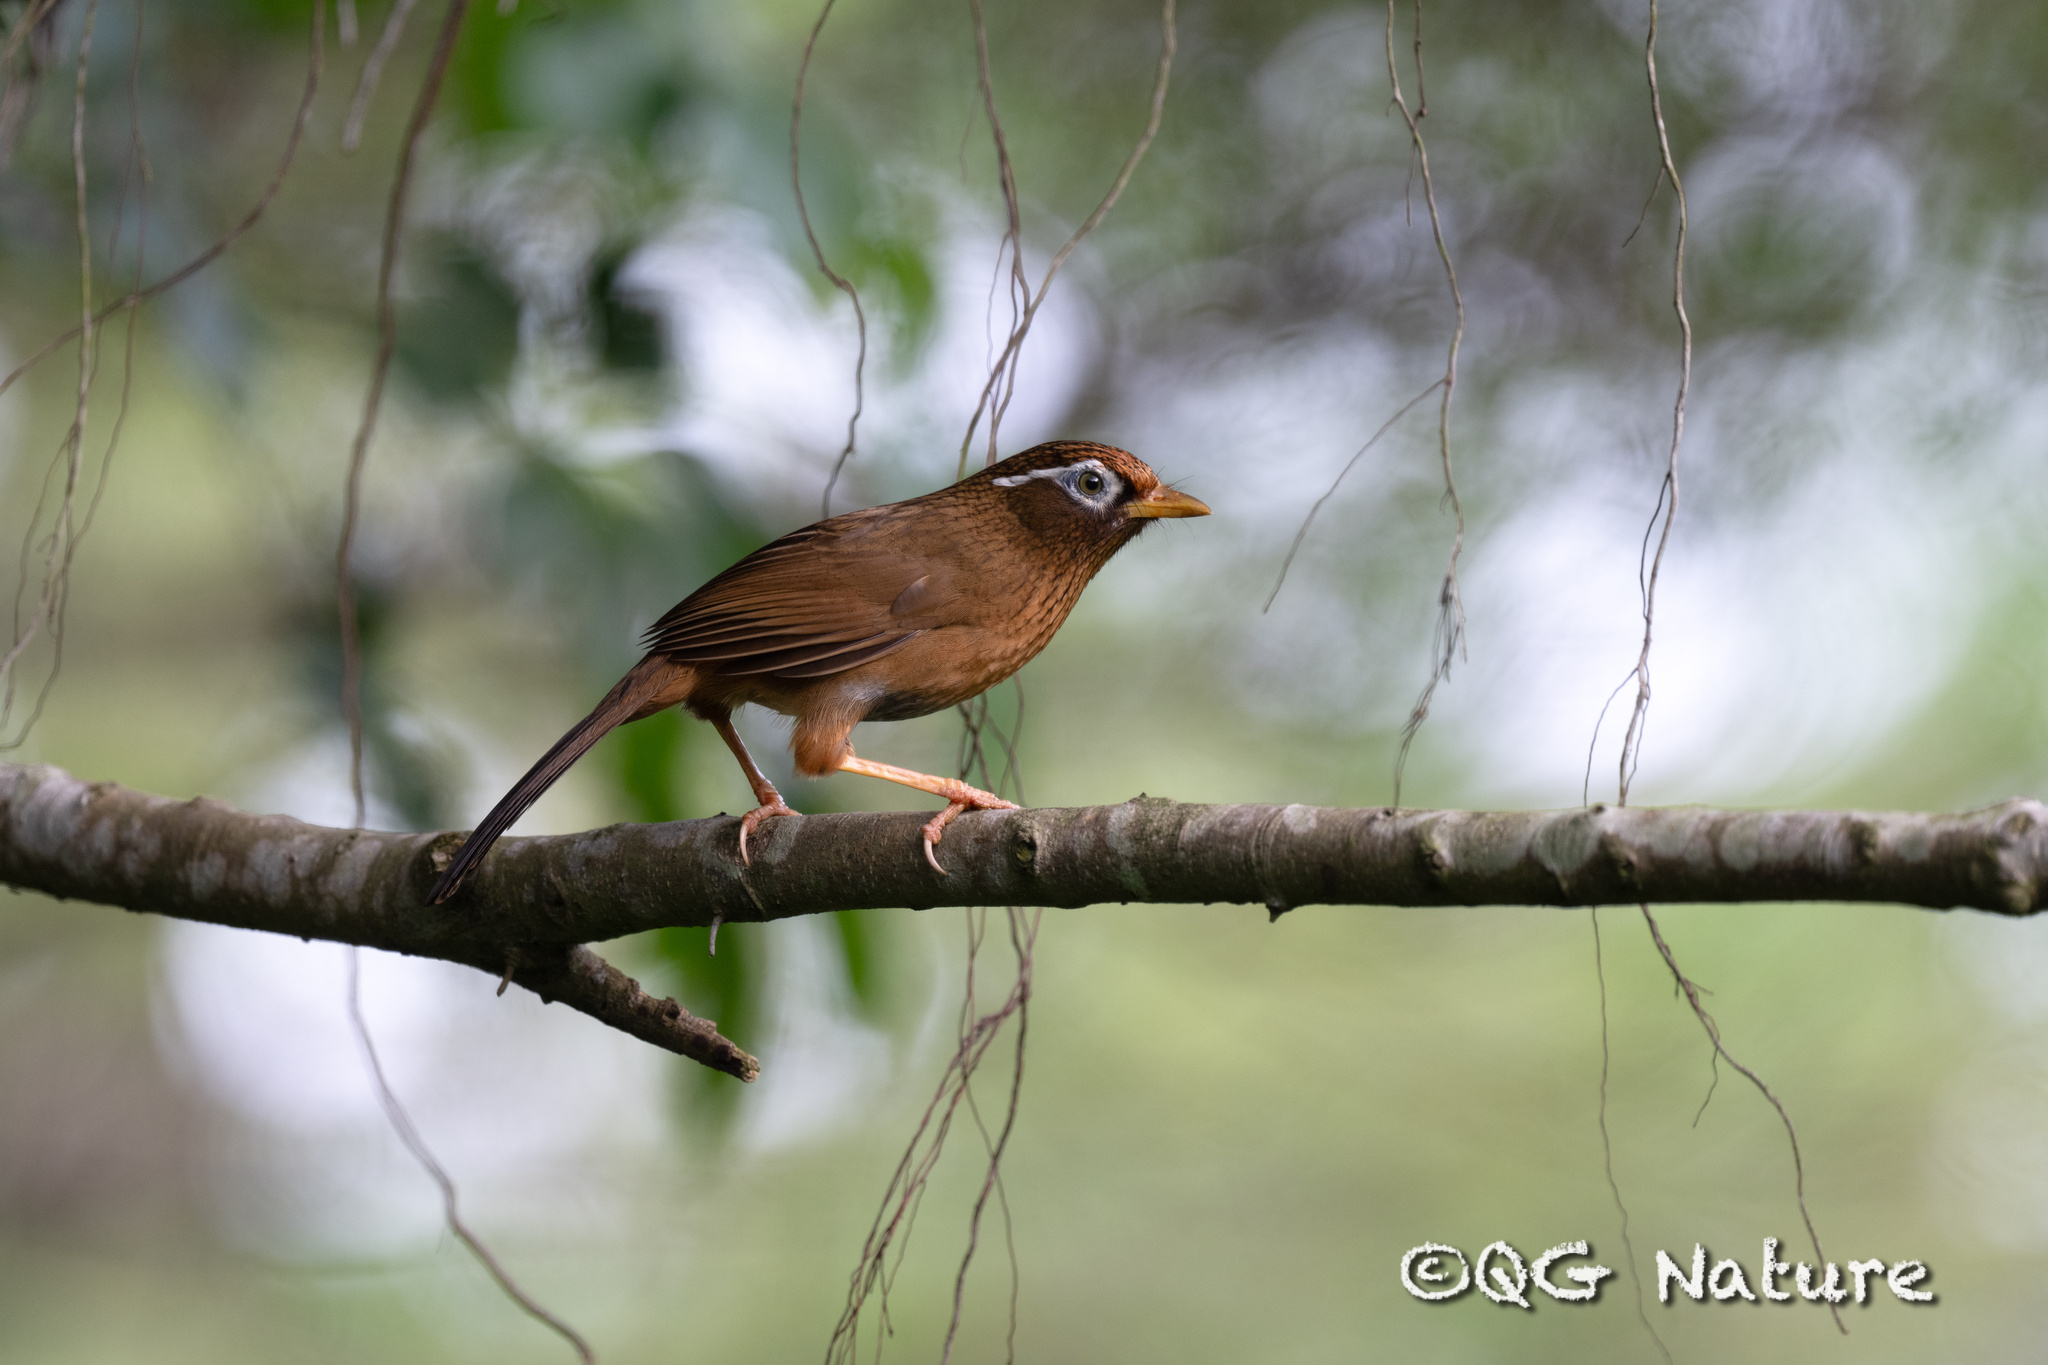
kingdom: Animalia
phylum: Chordata
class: Aves
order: Passeriformes
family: Leiothrichidae
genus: Garrulax
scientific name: Garrulax canorus
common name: Chinese hwamei
